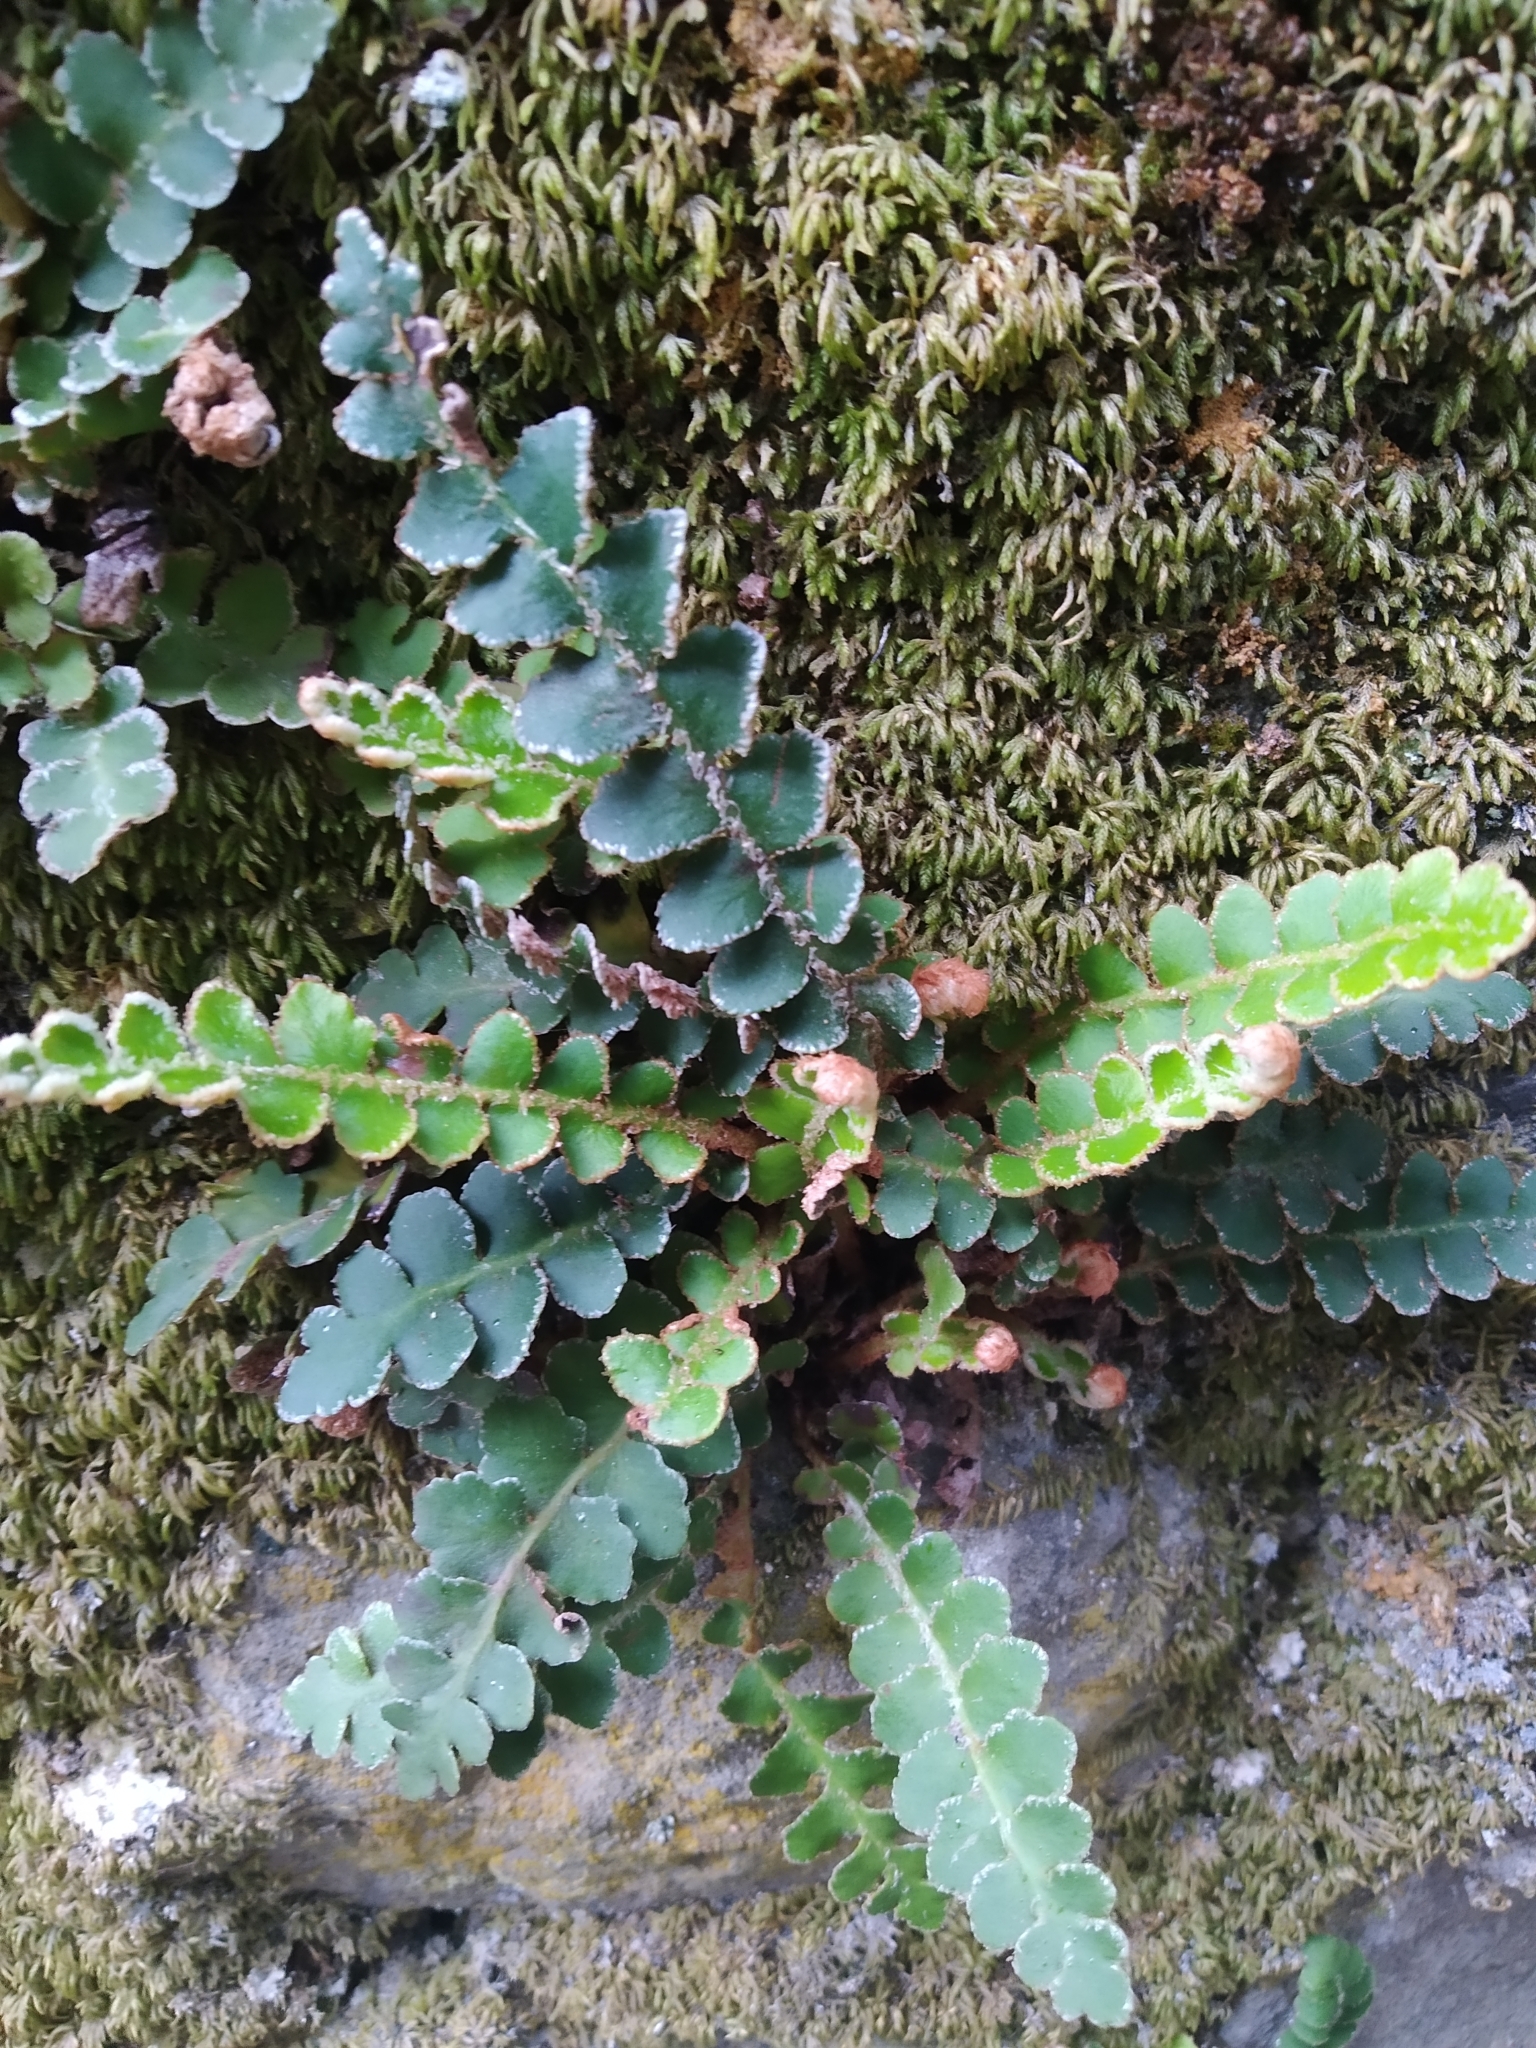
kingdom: Plantae
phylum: Tracheophyta
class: Polypodiopsida
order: Polypodiales
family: Aspleniaceae
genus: Asplenium
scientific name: Asplenium ceterach
